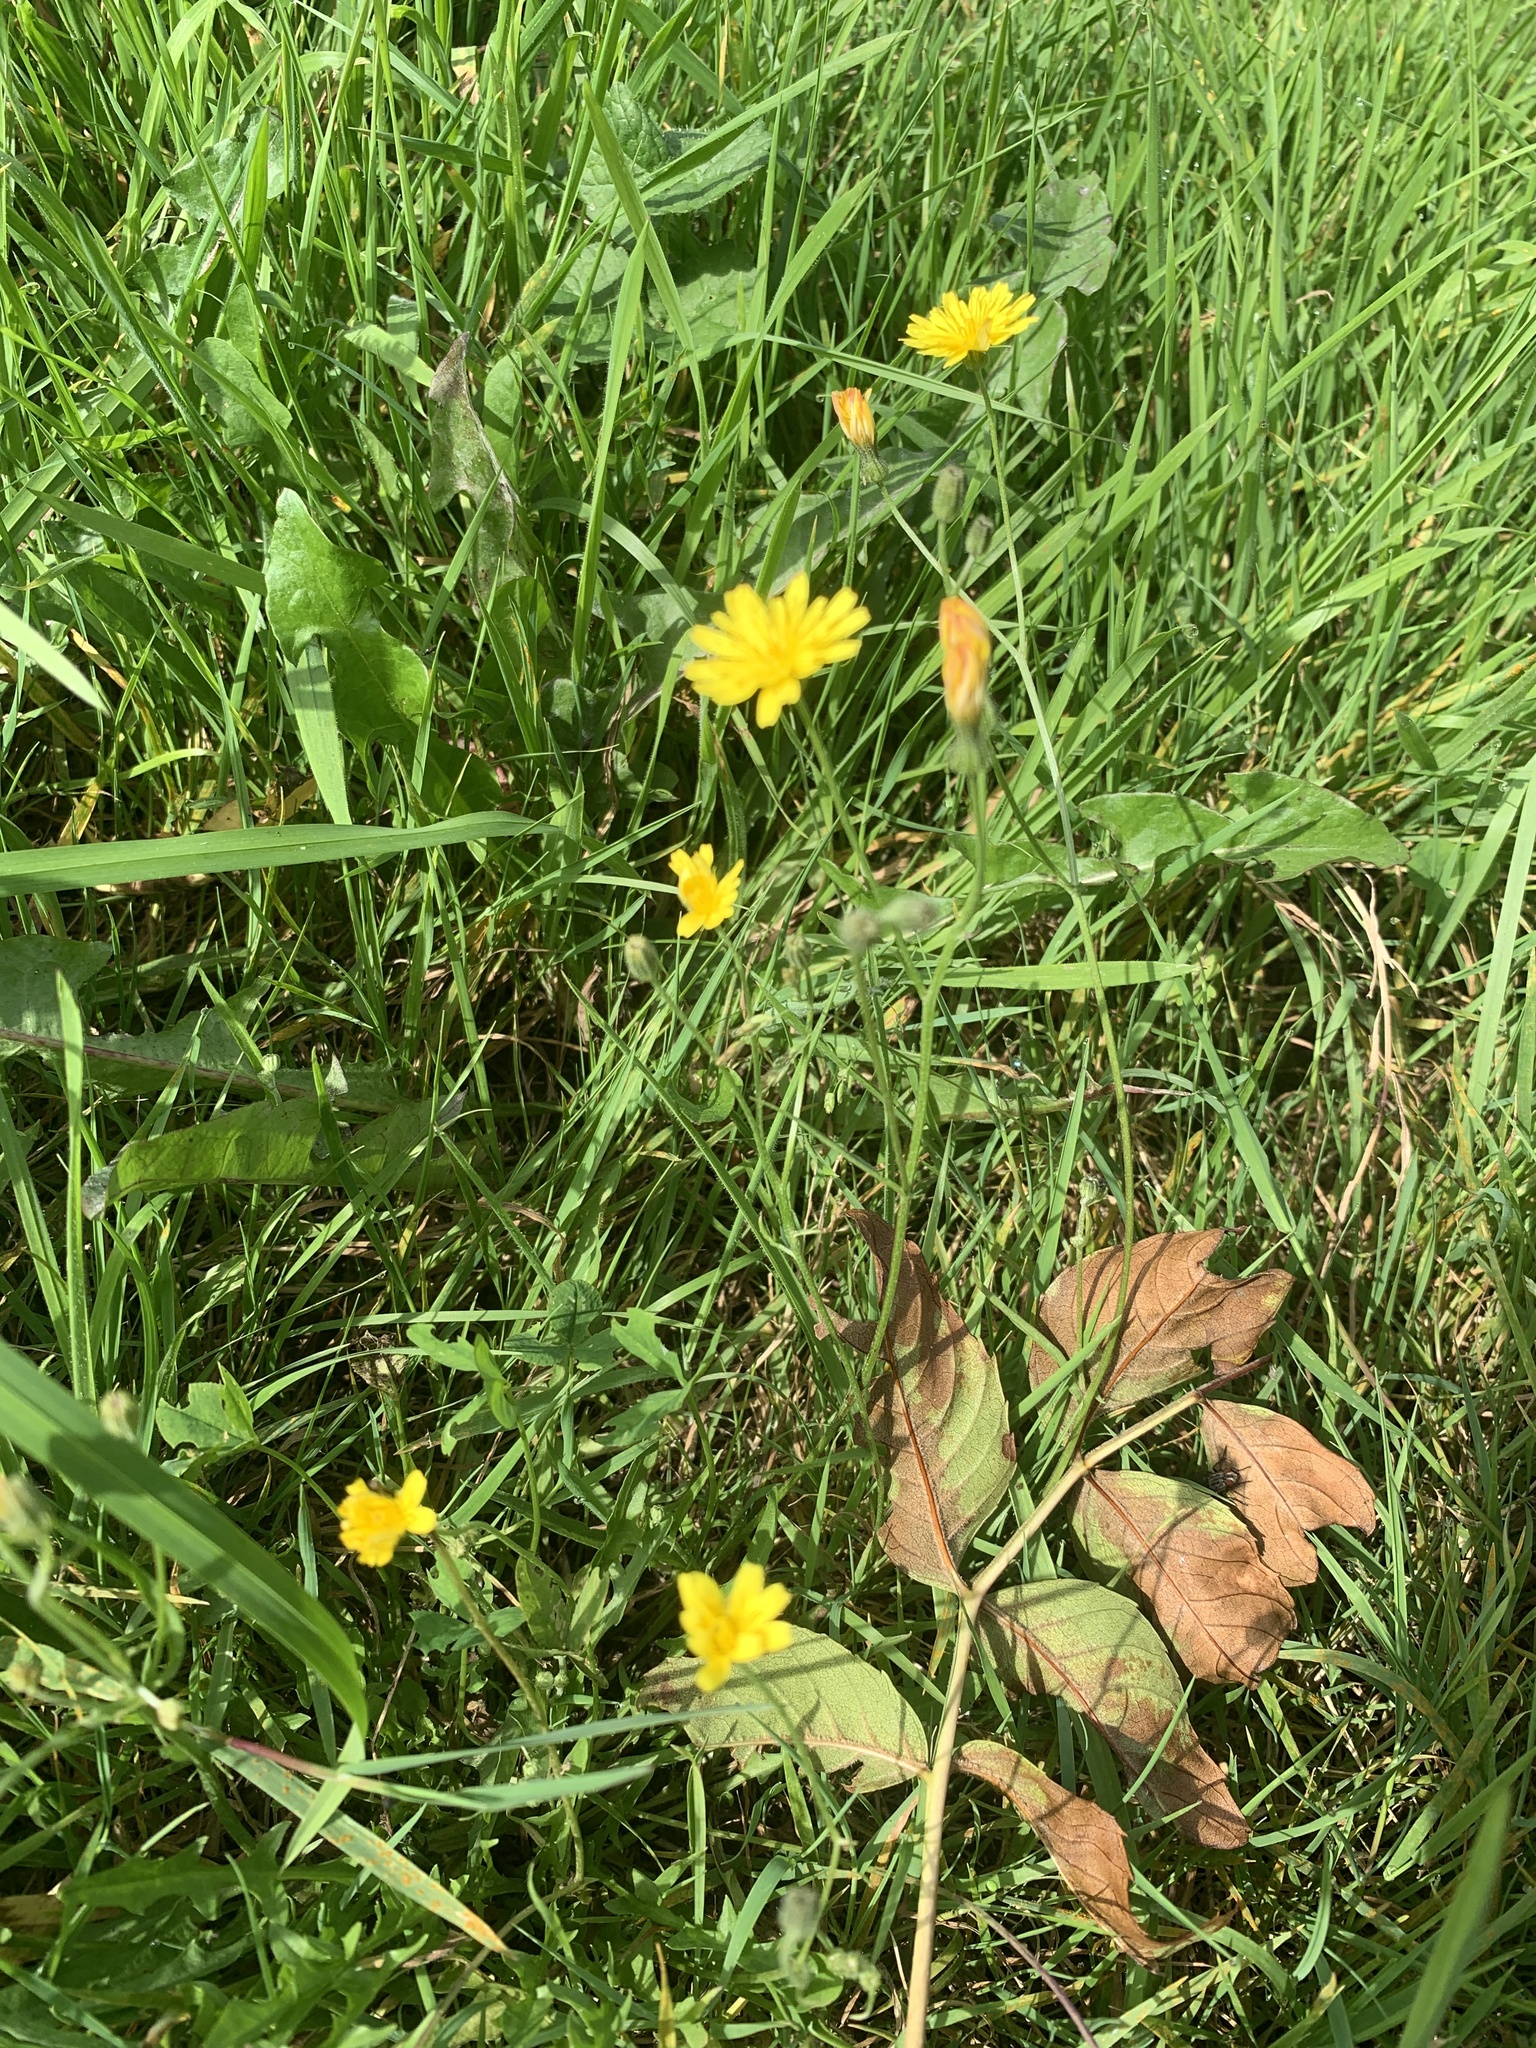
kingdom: Plantae
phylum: Tracheophyta
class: Magnoliopsida
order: Asterales
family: Asteraceae
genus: Scorzoneroides
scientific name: Scorzoneroides autumnalis
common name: Autumn hawkbit
